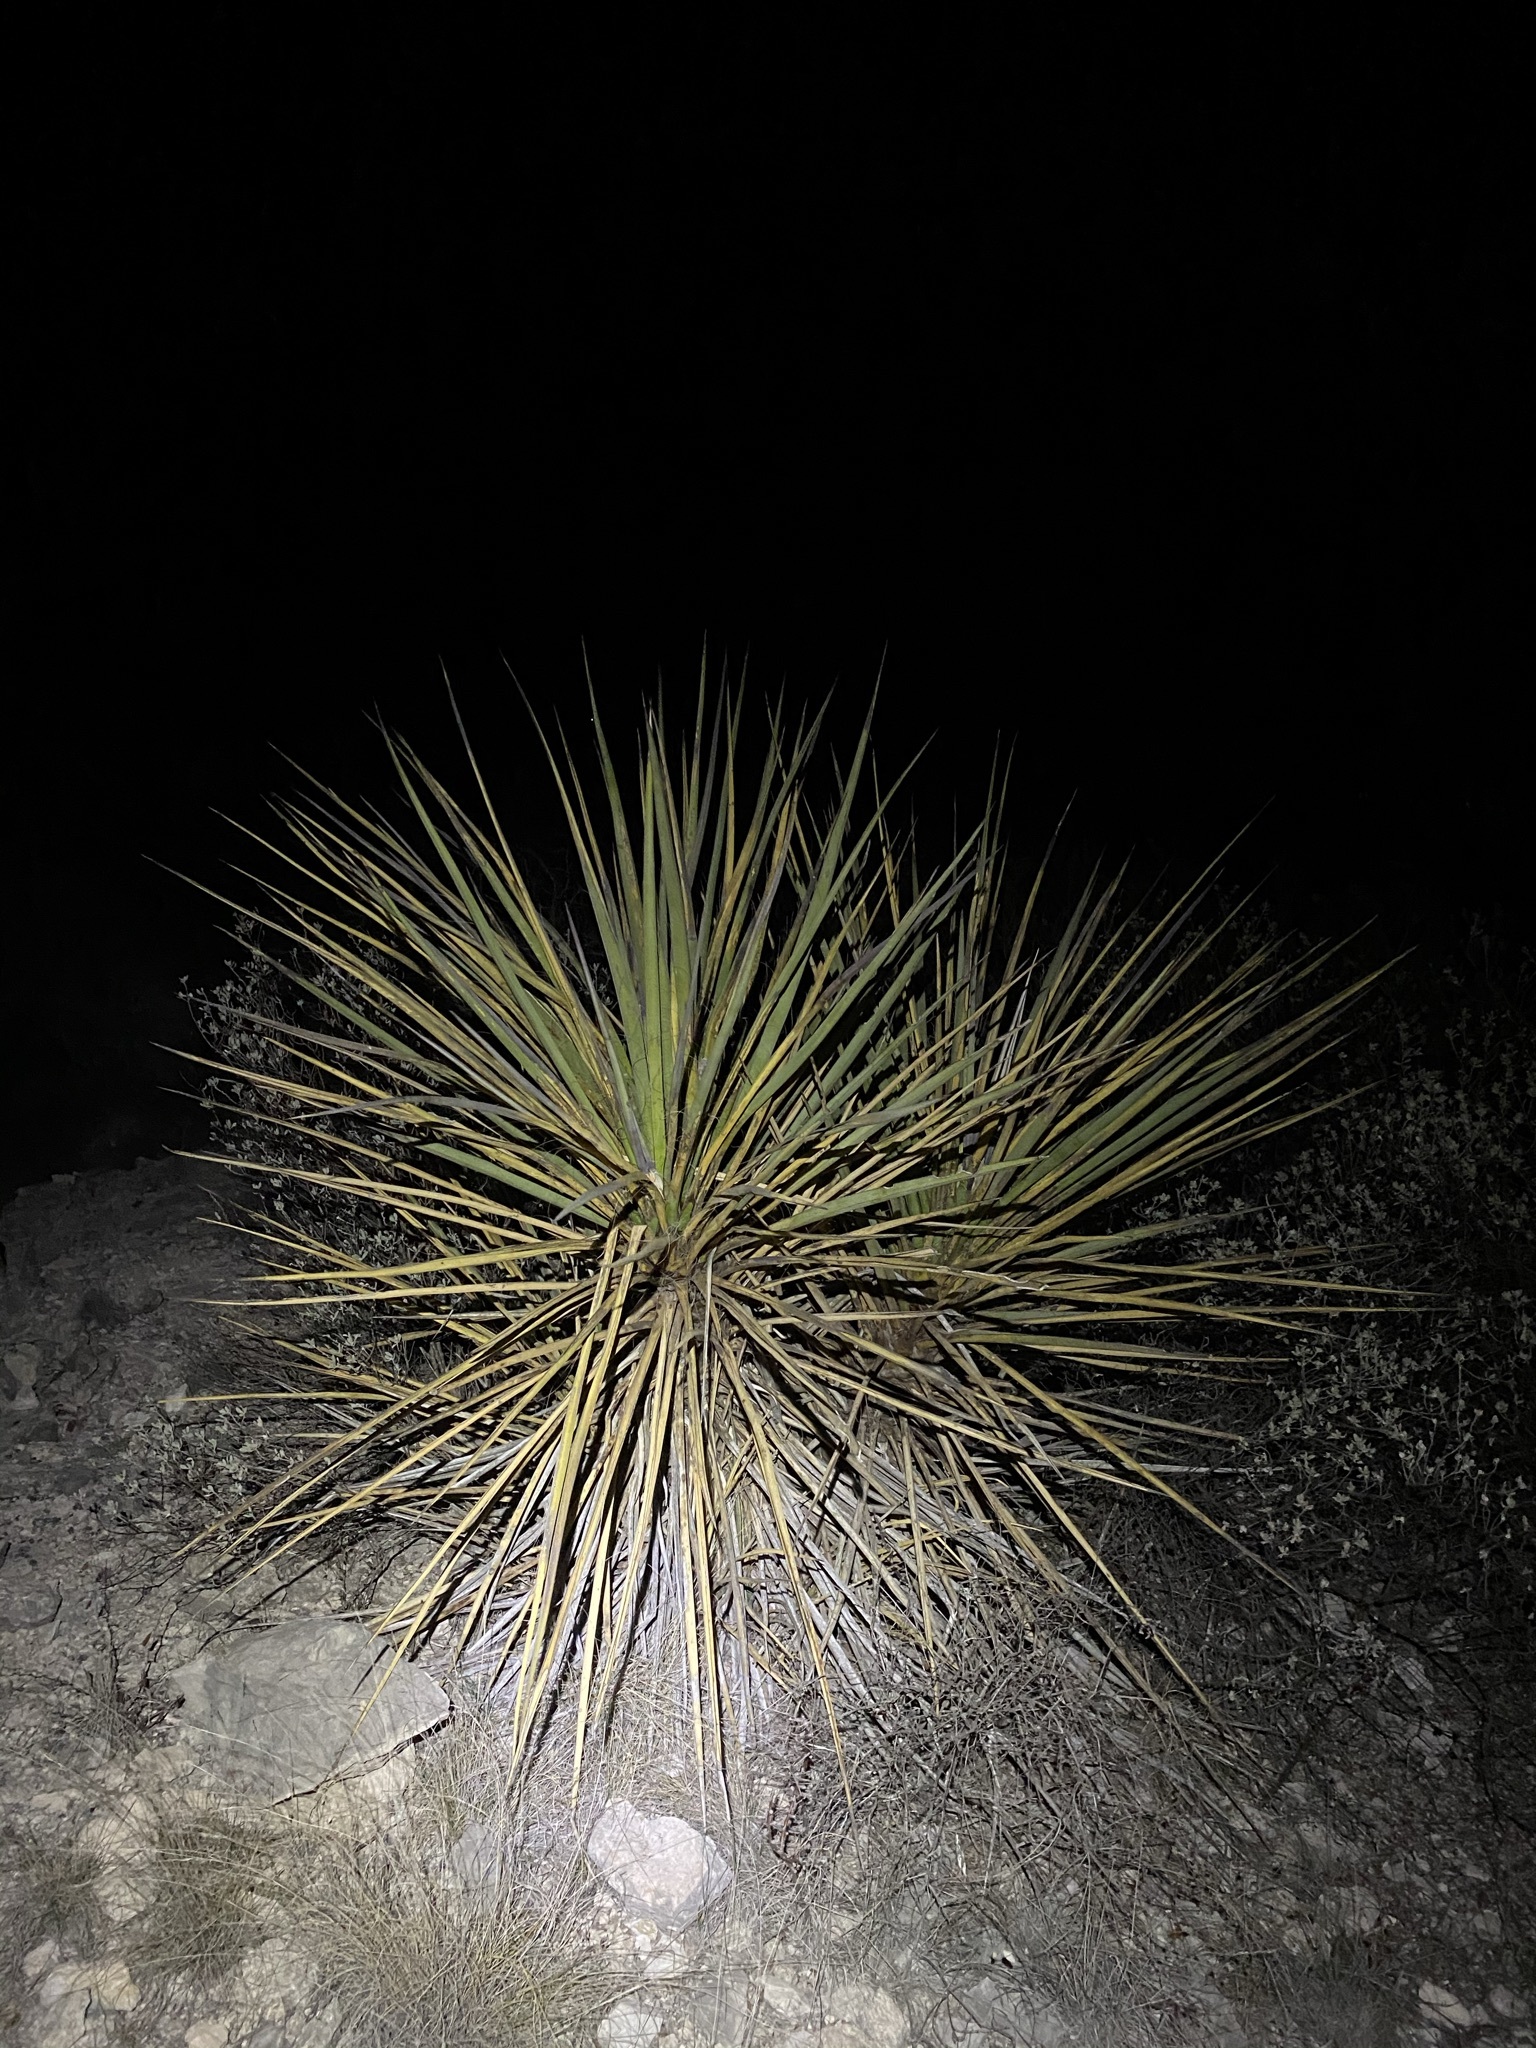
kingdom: Plantae
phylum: Tracheophyta
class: Liliopsida
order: Asparagales
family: Asparagaceae
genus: Yucca
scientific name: Yucca treculiana
